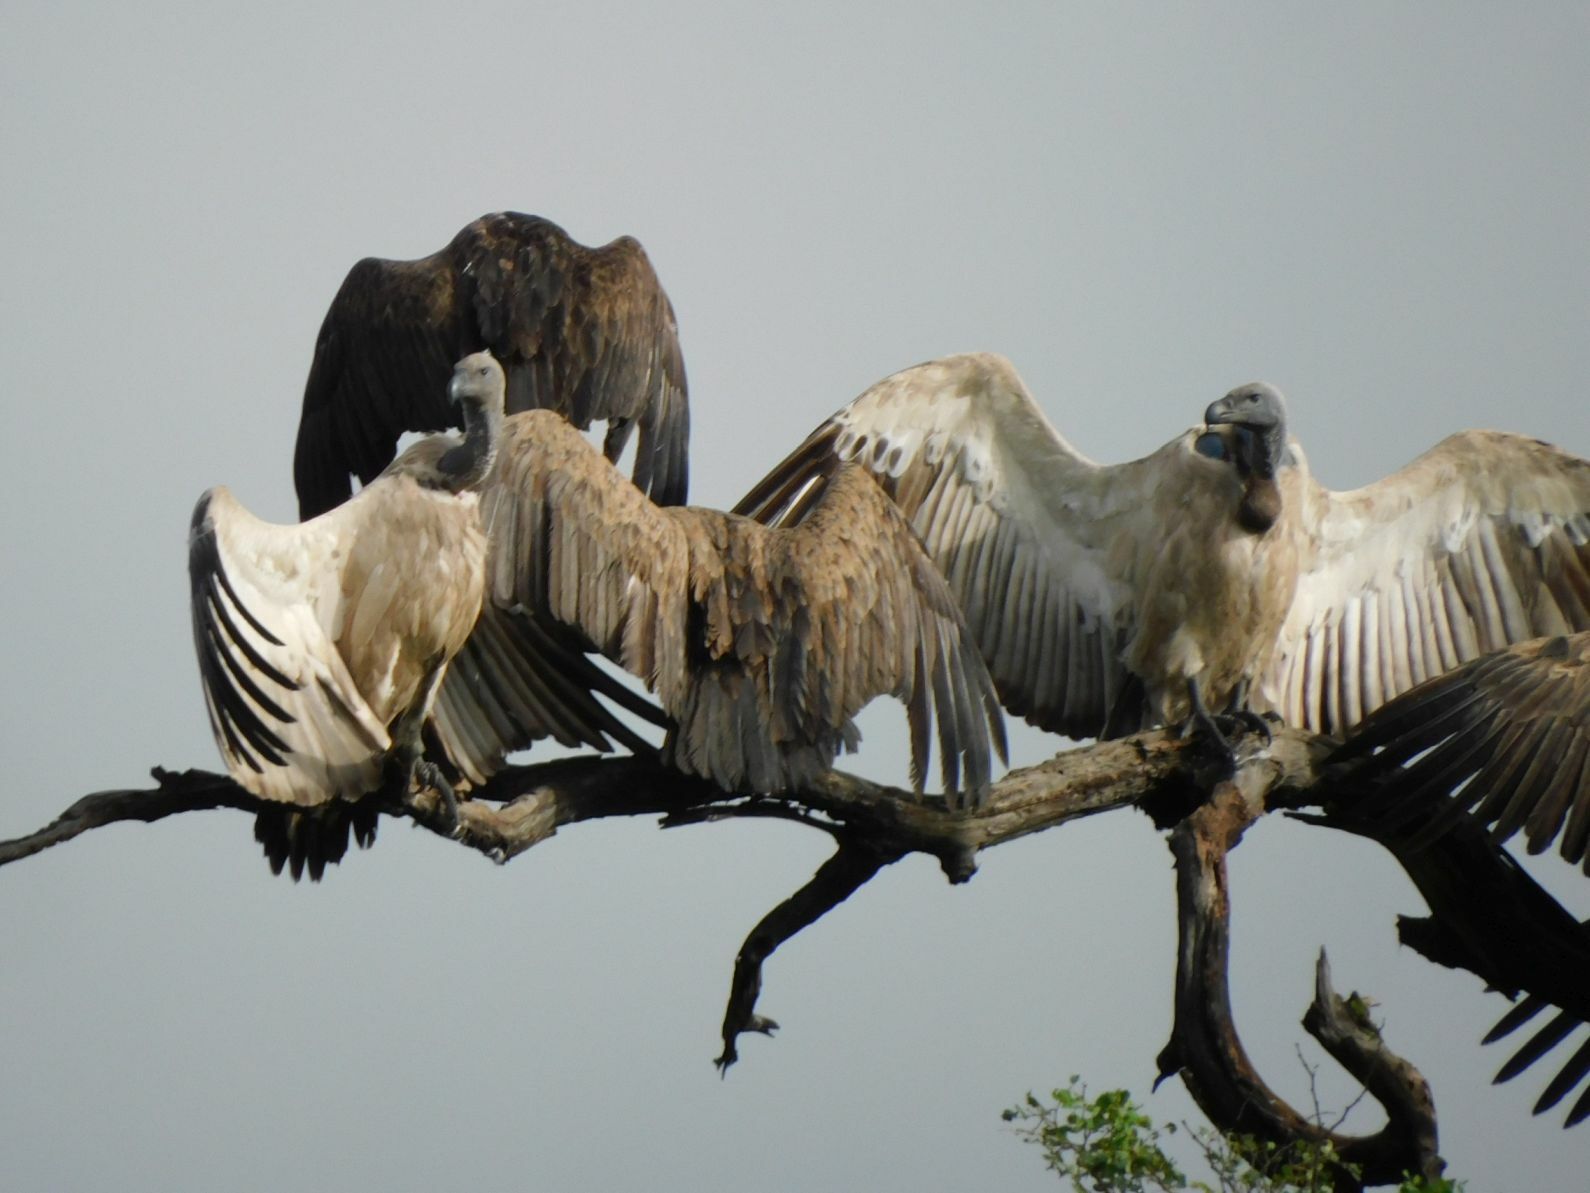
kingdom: Animalia
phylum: Chordata
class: Aves
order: Accipitriformes
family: Accipitridae
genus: Gyps
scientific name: Gyps africanus
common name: White-backed vulture
